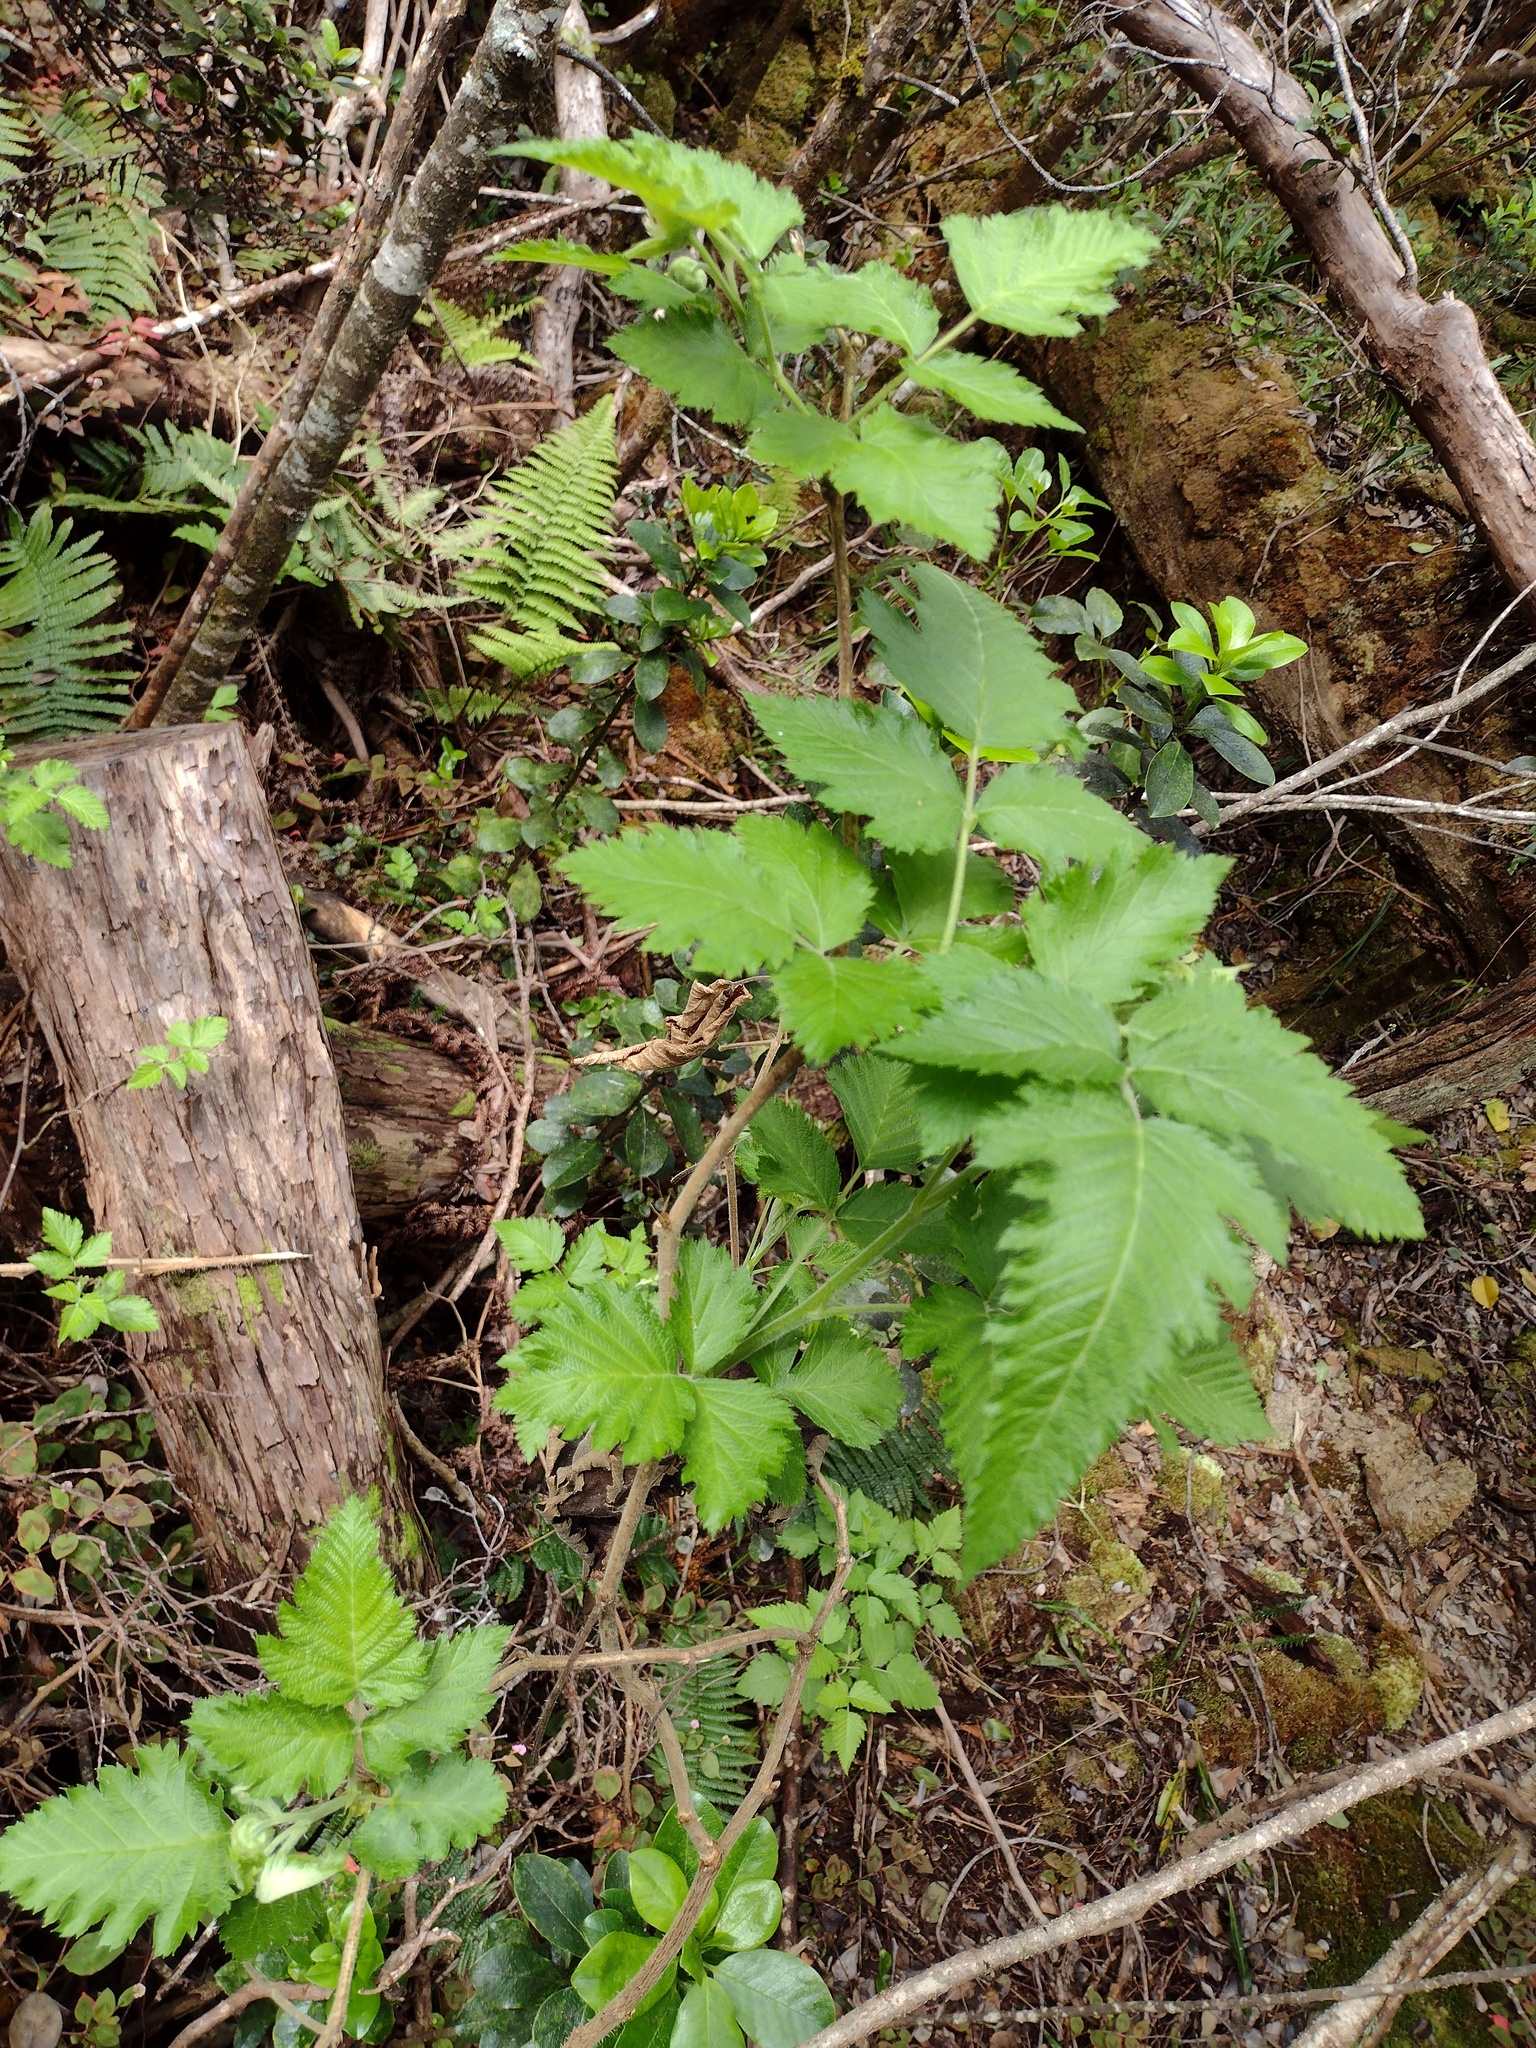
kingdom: Plantae
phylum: Tracheophyta
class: Magnoliopsida
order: Rosales
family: Rosaceae
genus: Rubus
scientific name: Rubus hawaiensis
